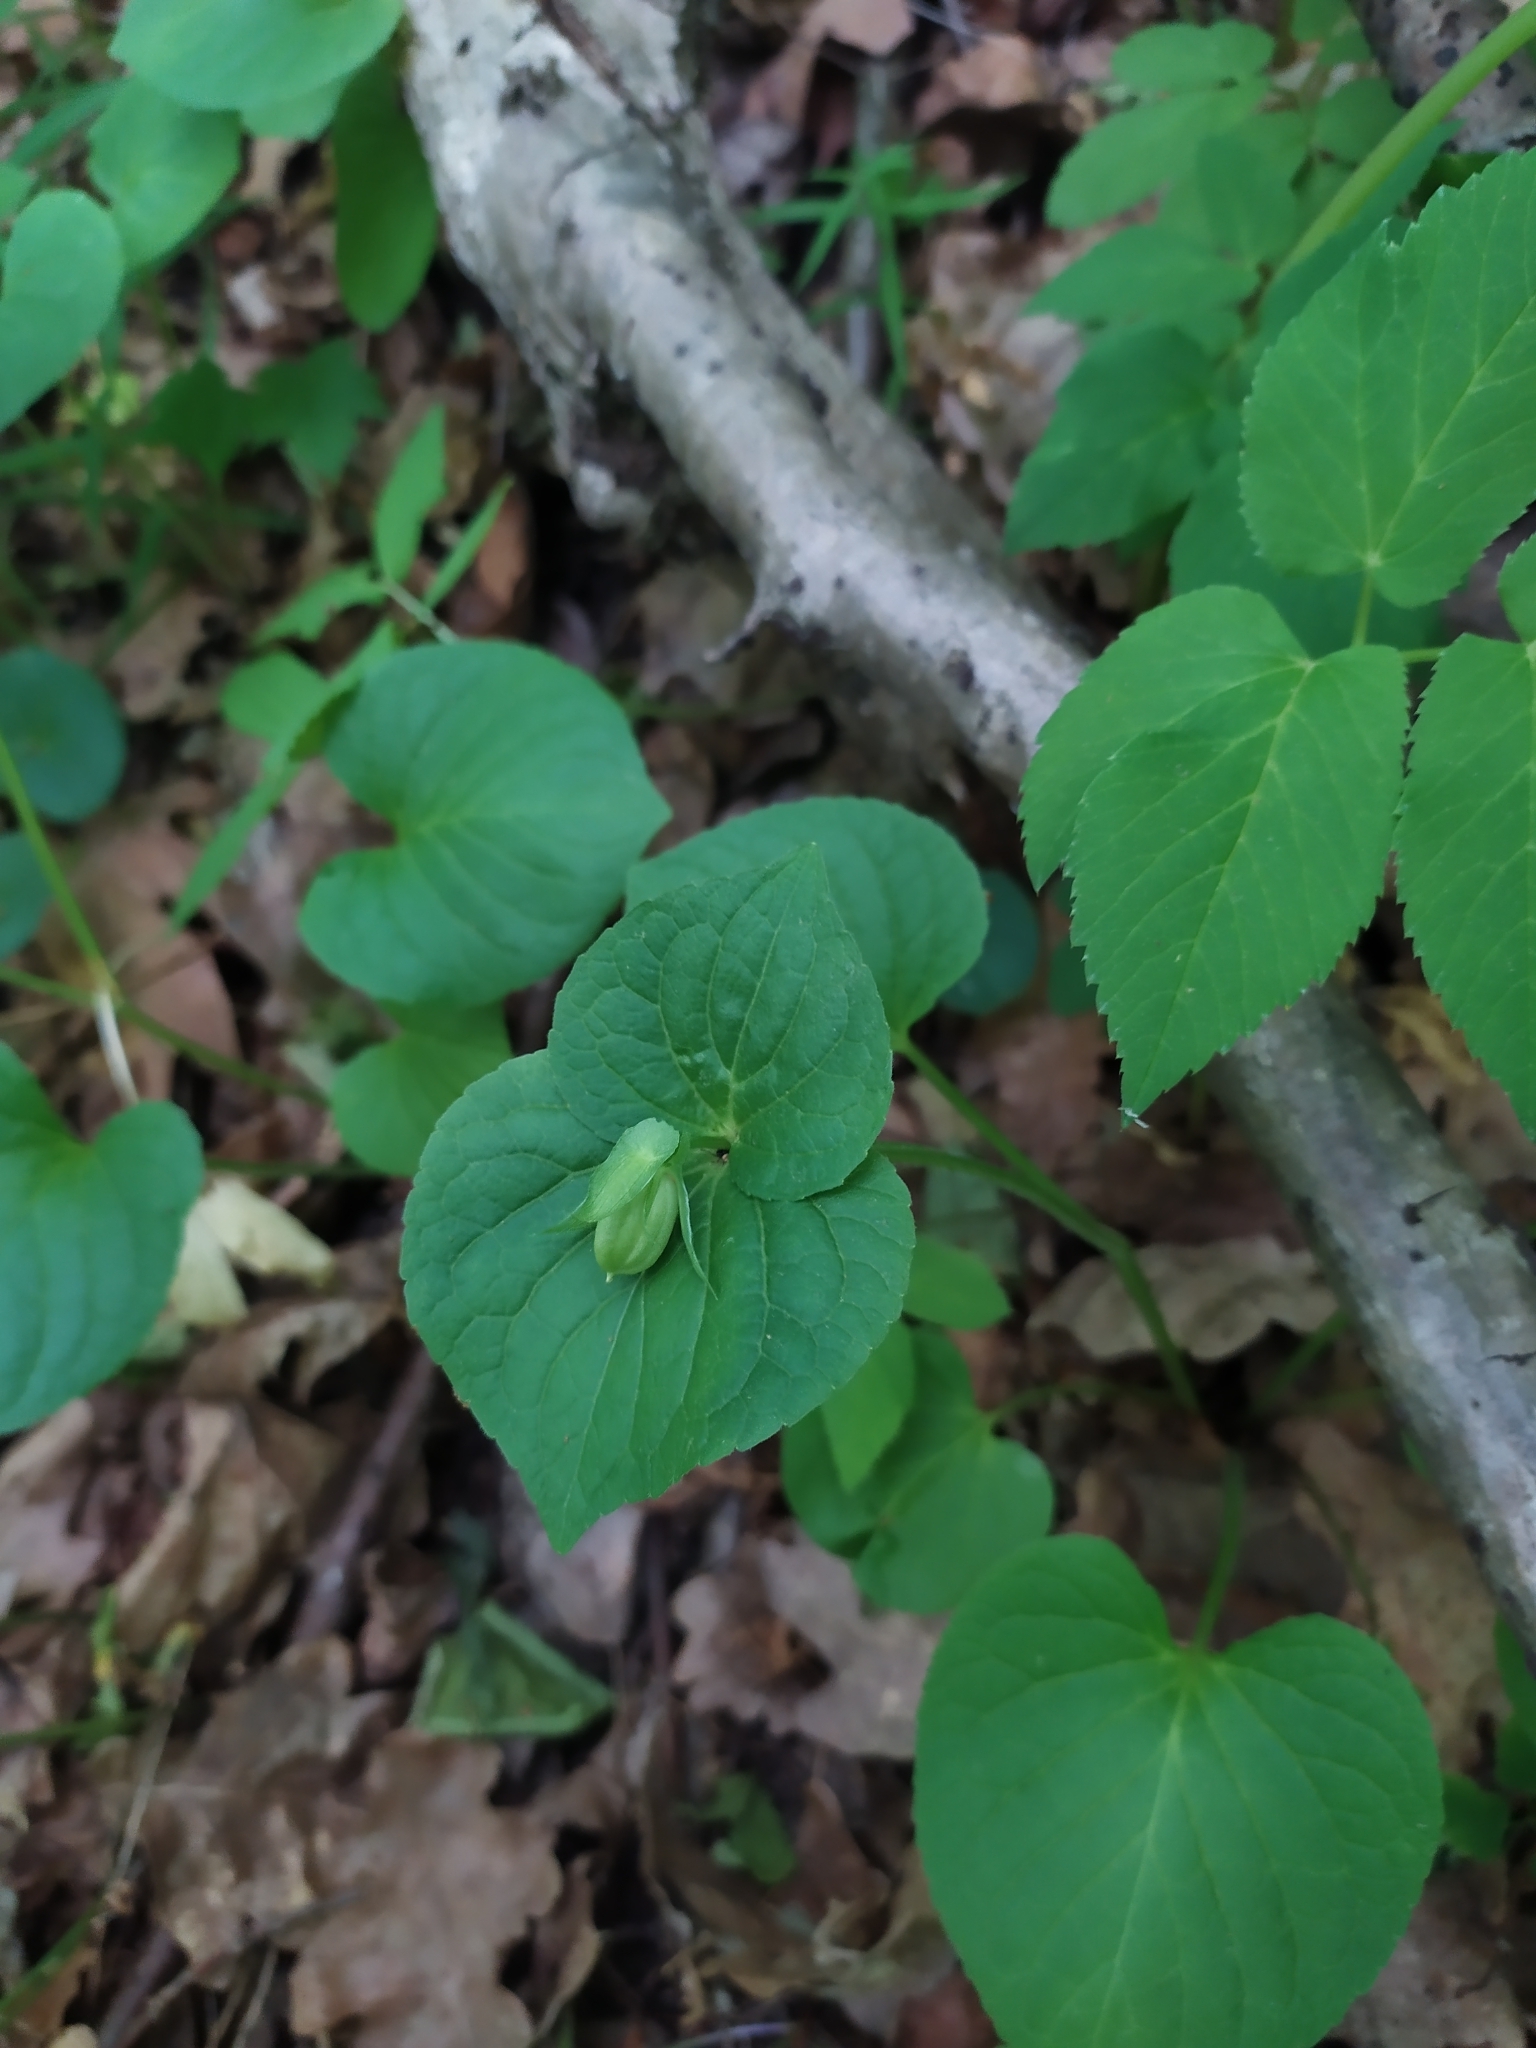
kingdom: Plantae
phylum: Tracheophyta
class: Magnoliopsida
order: Malpighiales
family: Violaceae
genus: Viola
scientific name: Viola mirabilis
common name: Wonder violet
